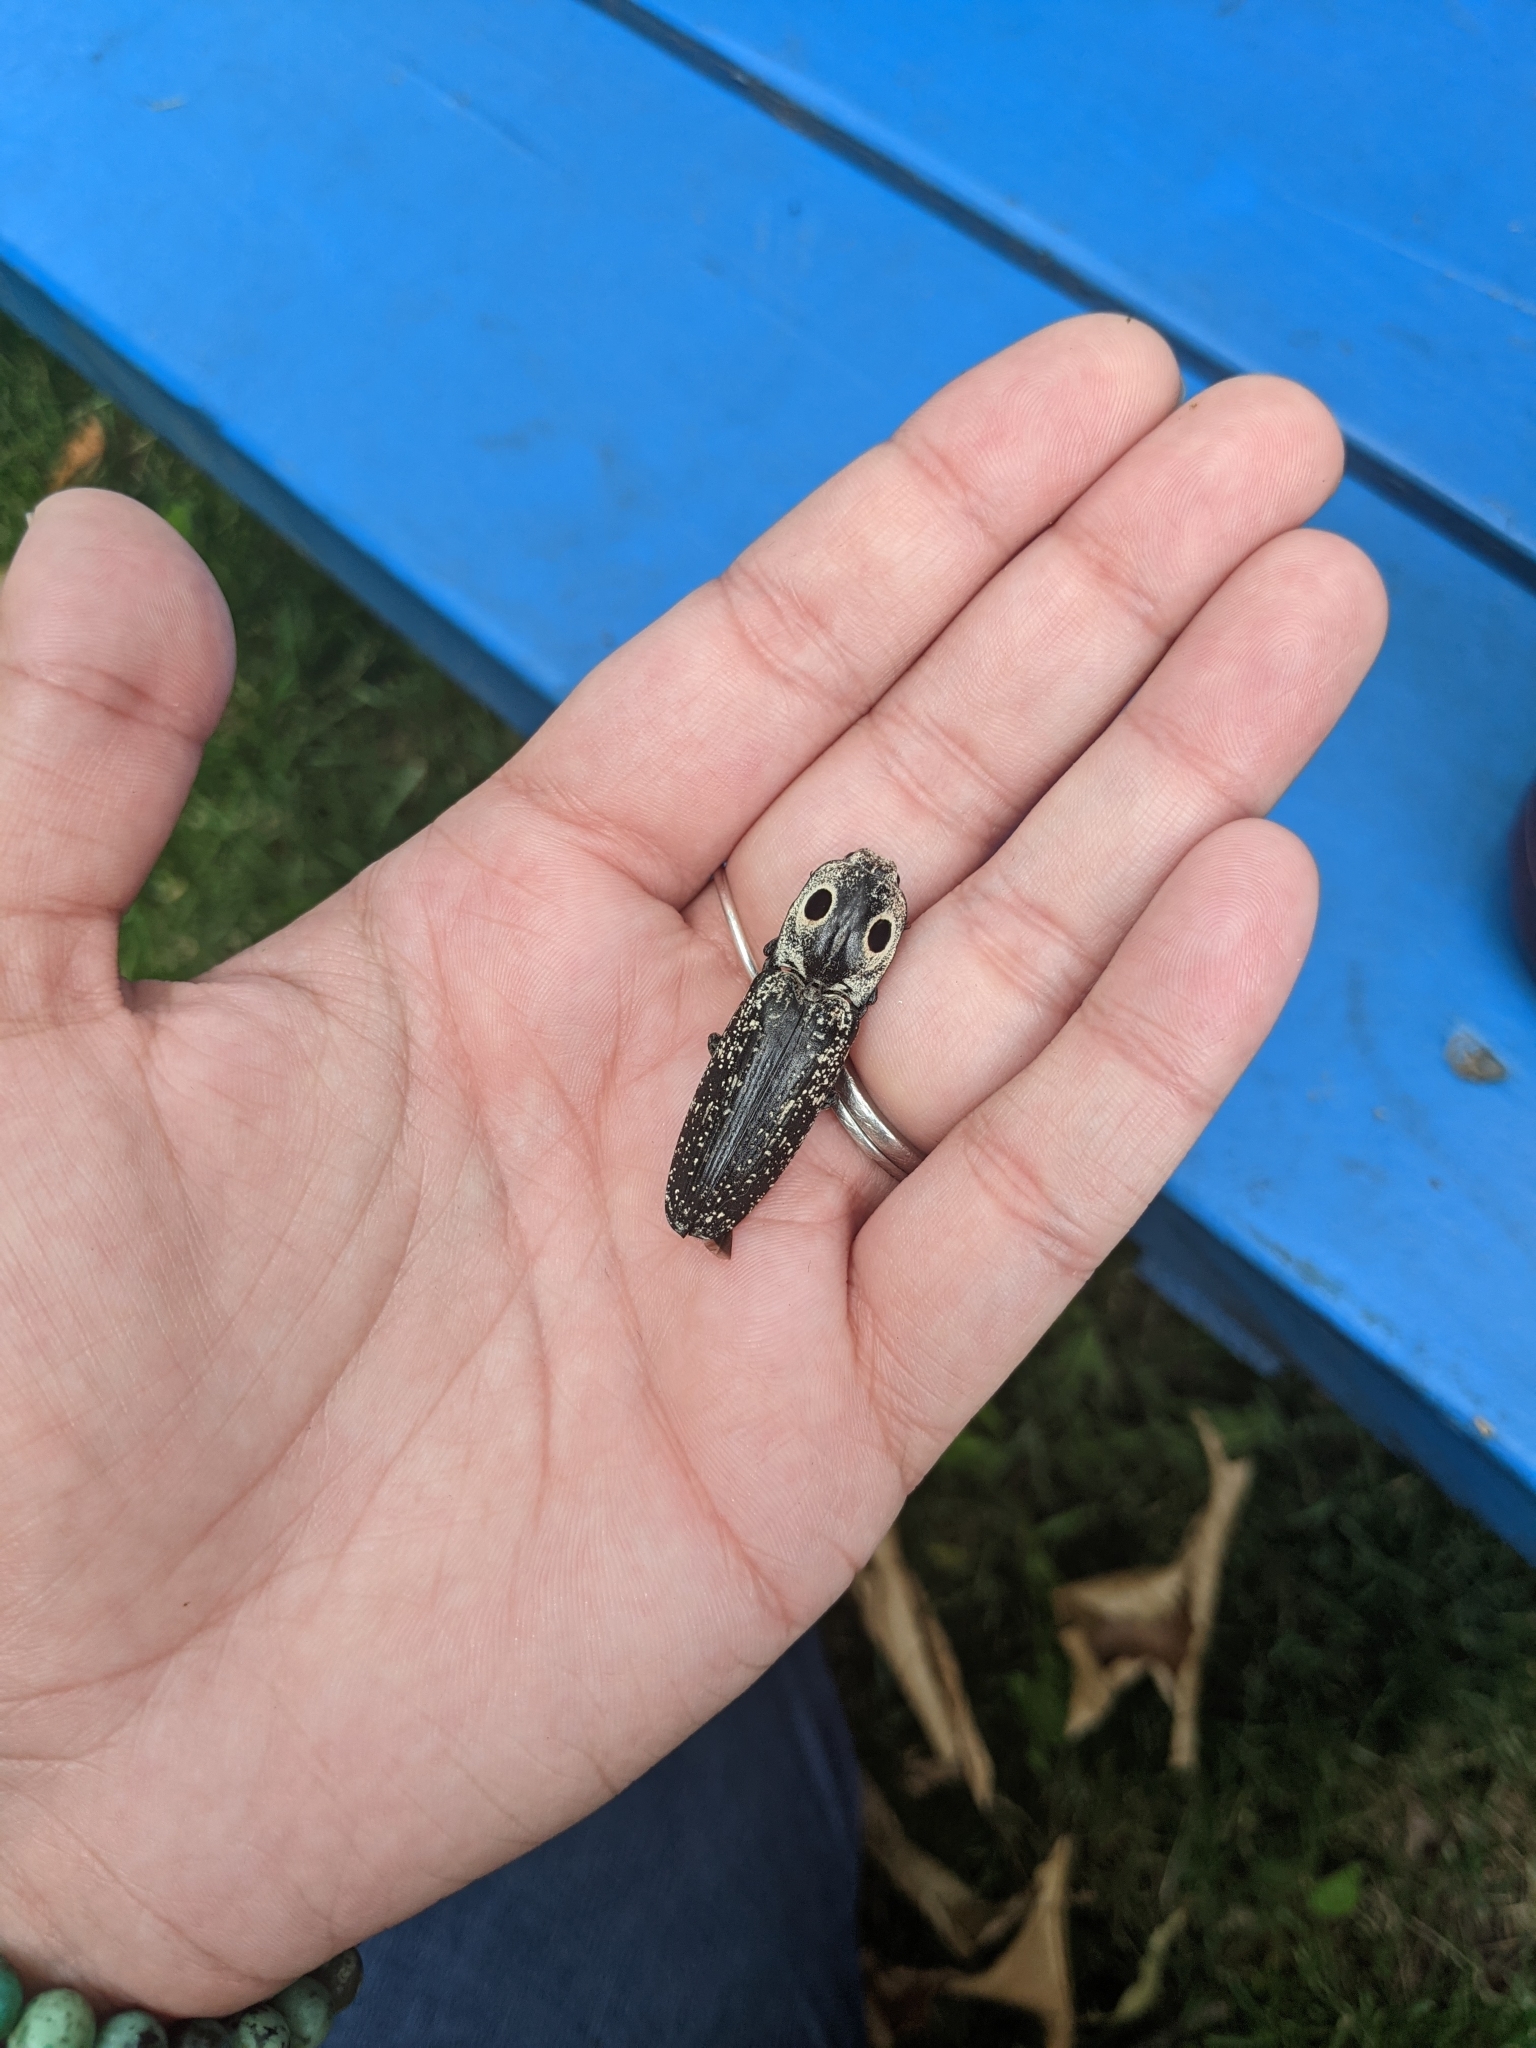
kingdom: Animalia
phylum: Arthropoda
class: Insecta
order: Coleoptera
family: Elateridae
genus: Alaus
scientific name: Alaus oculatus
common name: Eastern eyed click beetle
